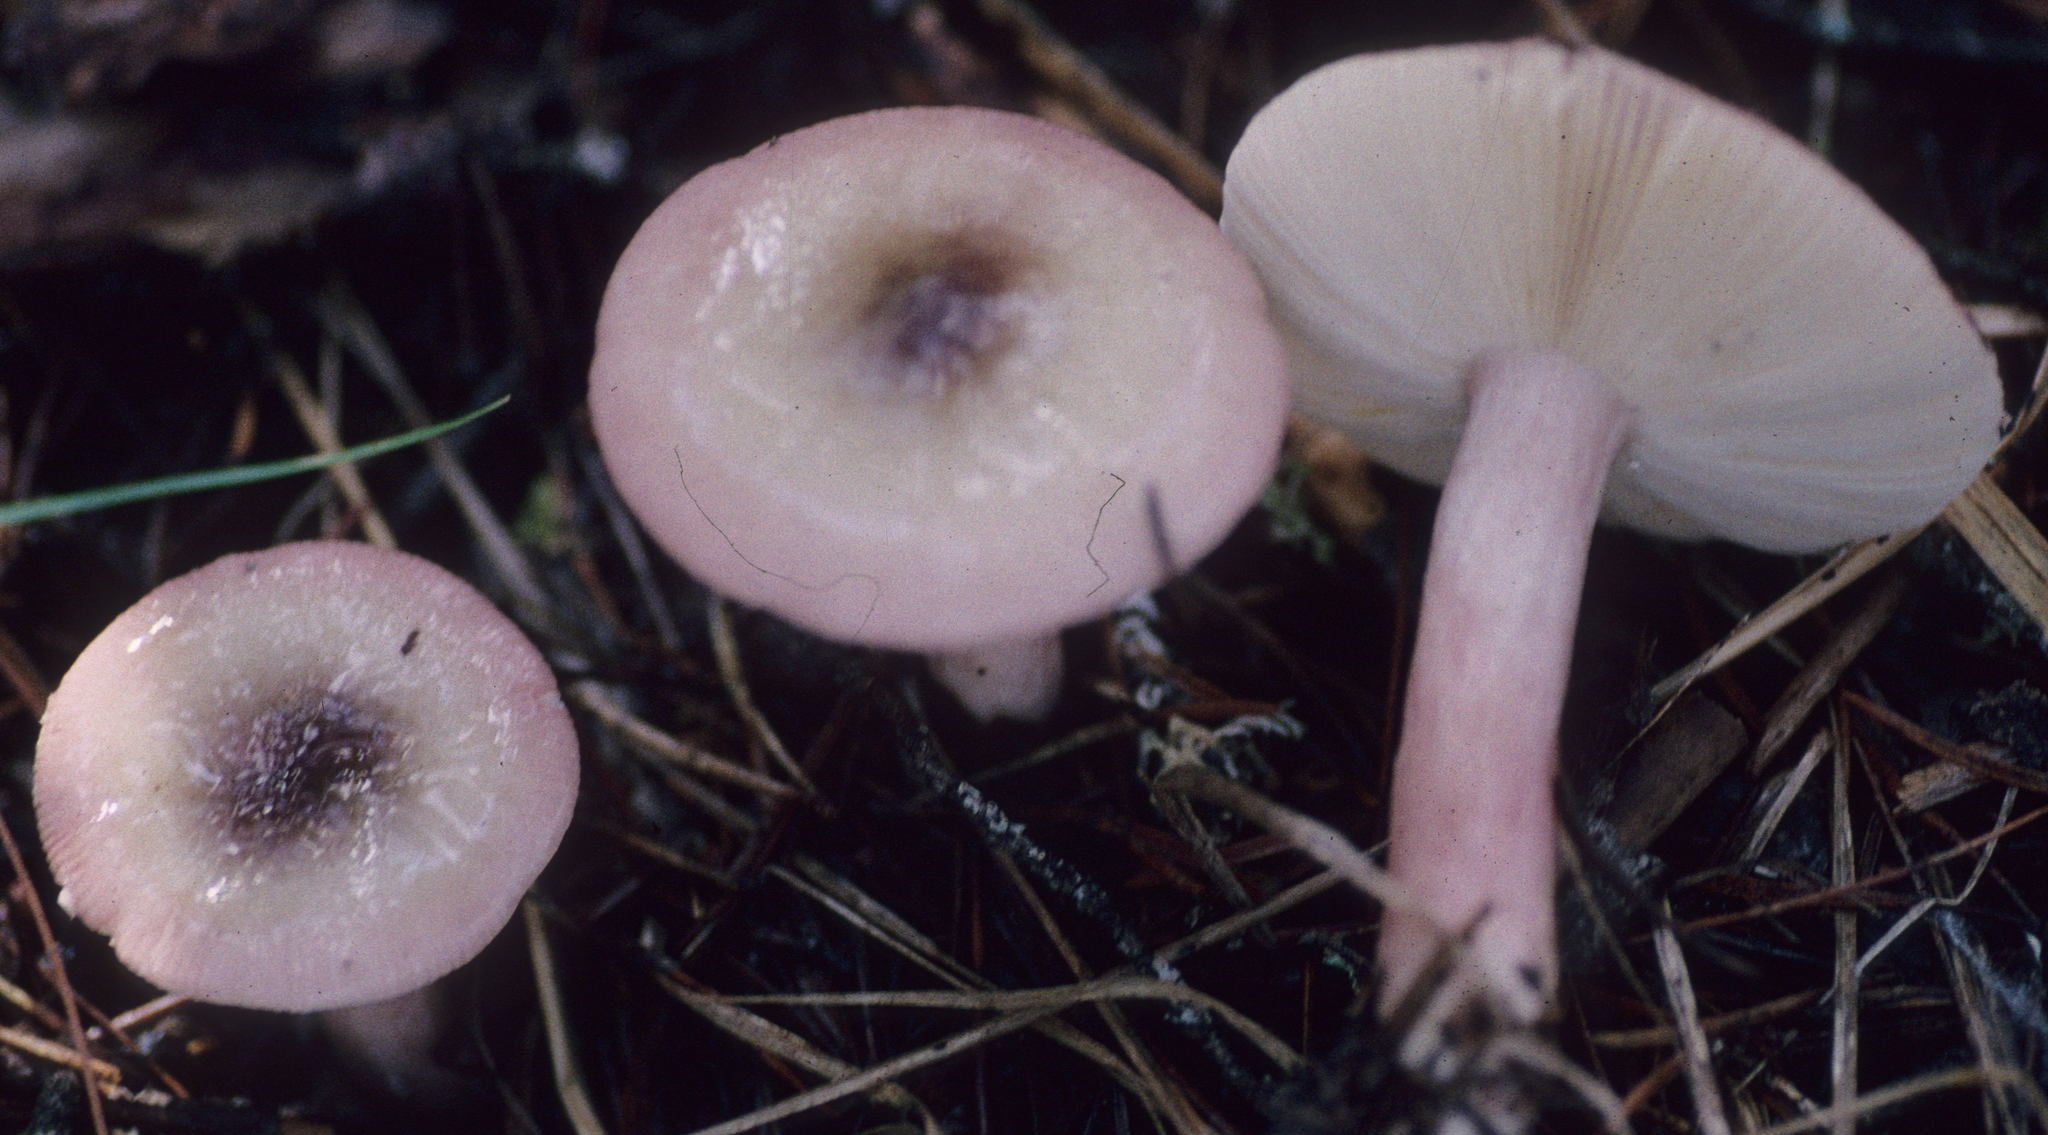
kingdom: Fungi
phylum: Basidiomycota
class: Agaricomycetes
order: Russulales
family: Russulaceae
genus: Russula
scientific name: Russula fragilis
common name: Fragile brittlegill
